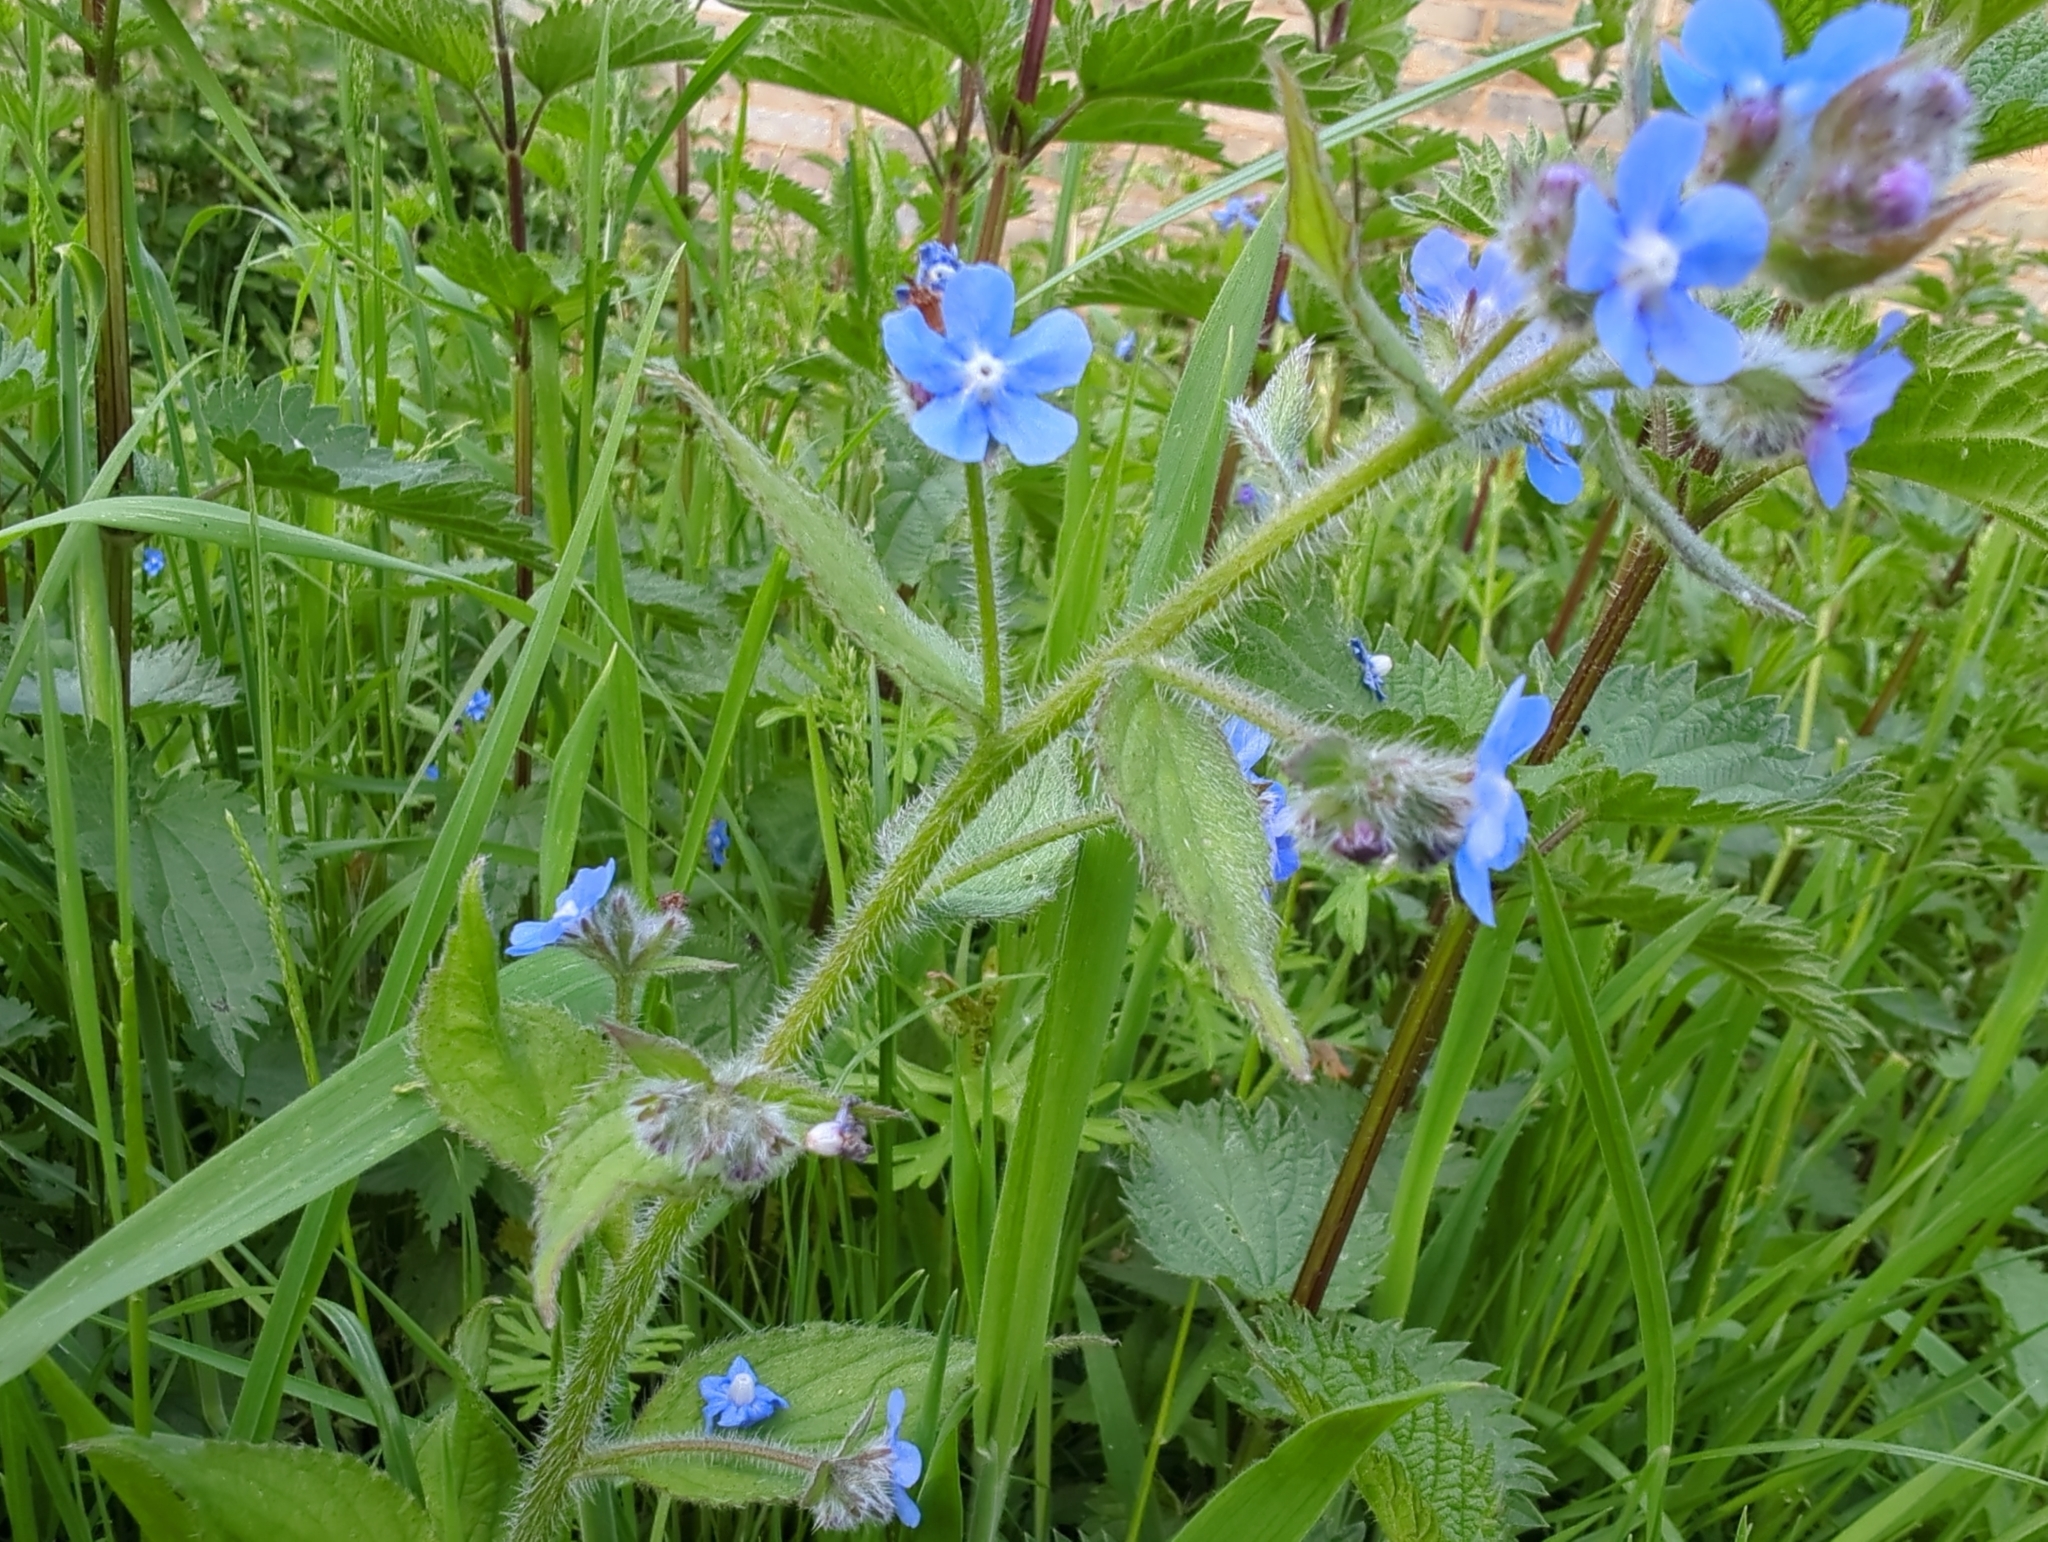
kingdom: Plantae
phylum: Tracheophyta
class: Magnoliopsida
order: Boraginales
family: Boraginaceae
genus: Pentaglottis
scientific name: Pentaglottis sempervirens
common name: Green alkanet
